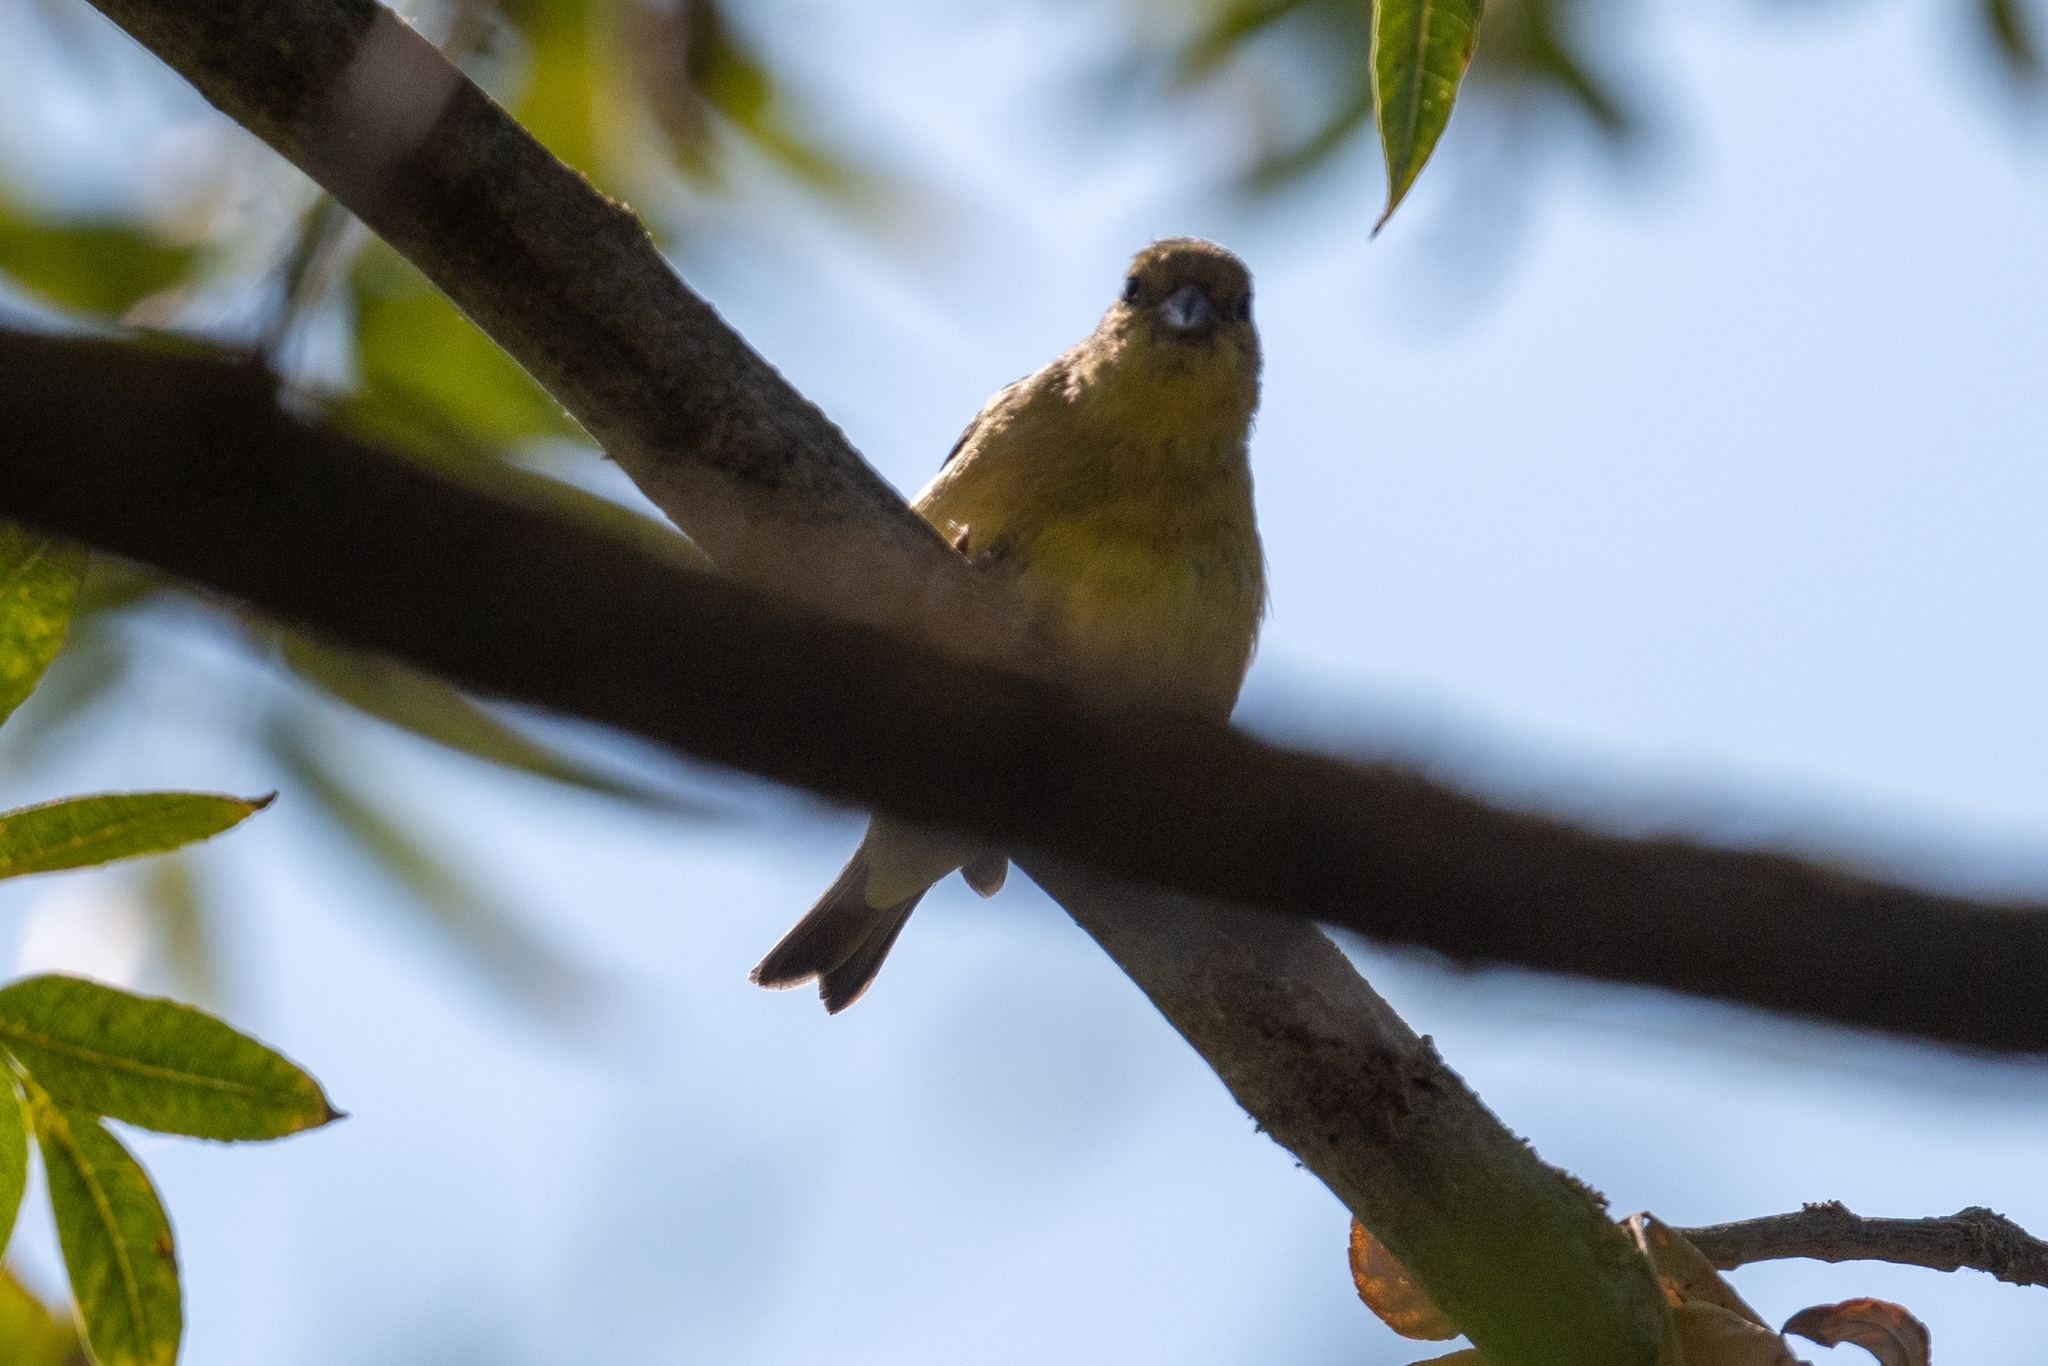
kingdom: Animalia
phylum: Chordata
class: Aves
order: Passeriformes
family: Fringillidae
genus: Spinus
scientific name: Spinus psaltria
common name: Lesser goldfinch
